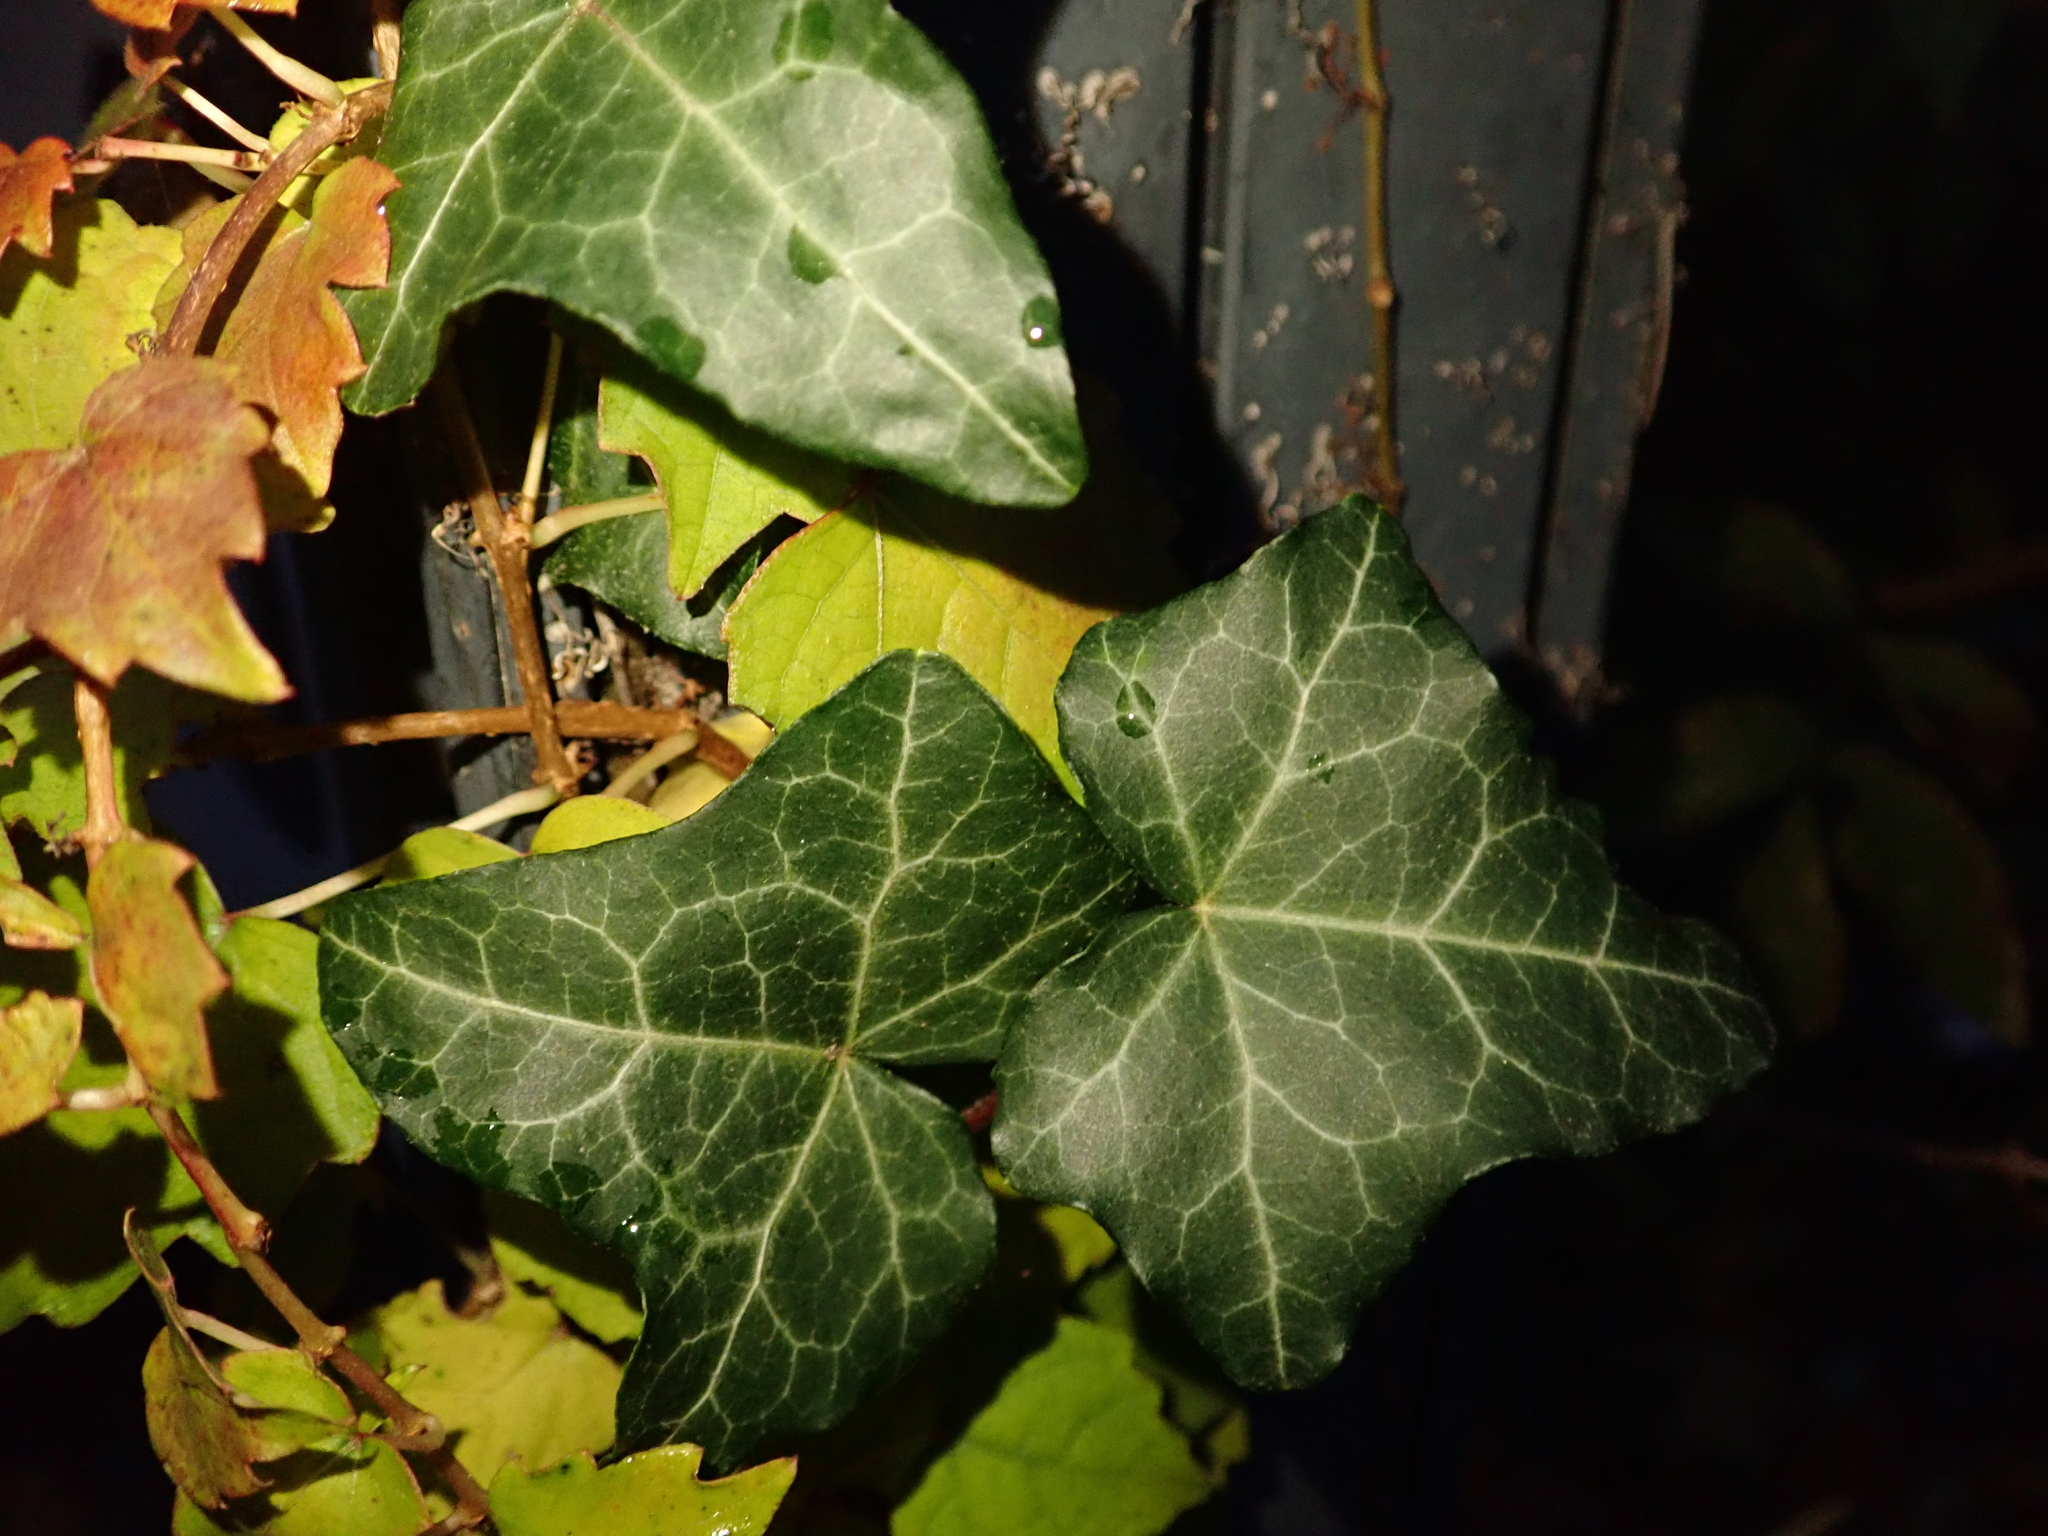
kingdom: Plantae
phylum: Tracheophyta
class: Magnoliopsida
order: Apiales
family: Araliaceae
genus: Hedera
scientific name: Hedera helix
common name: Ivy
